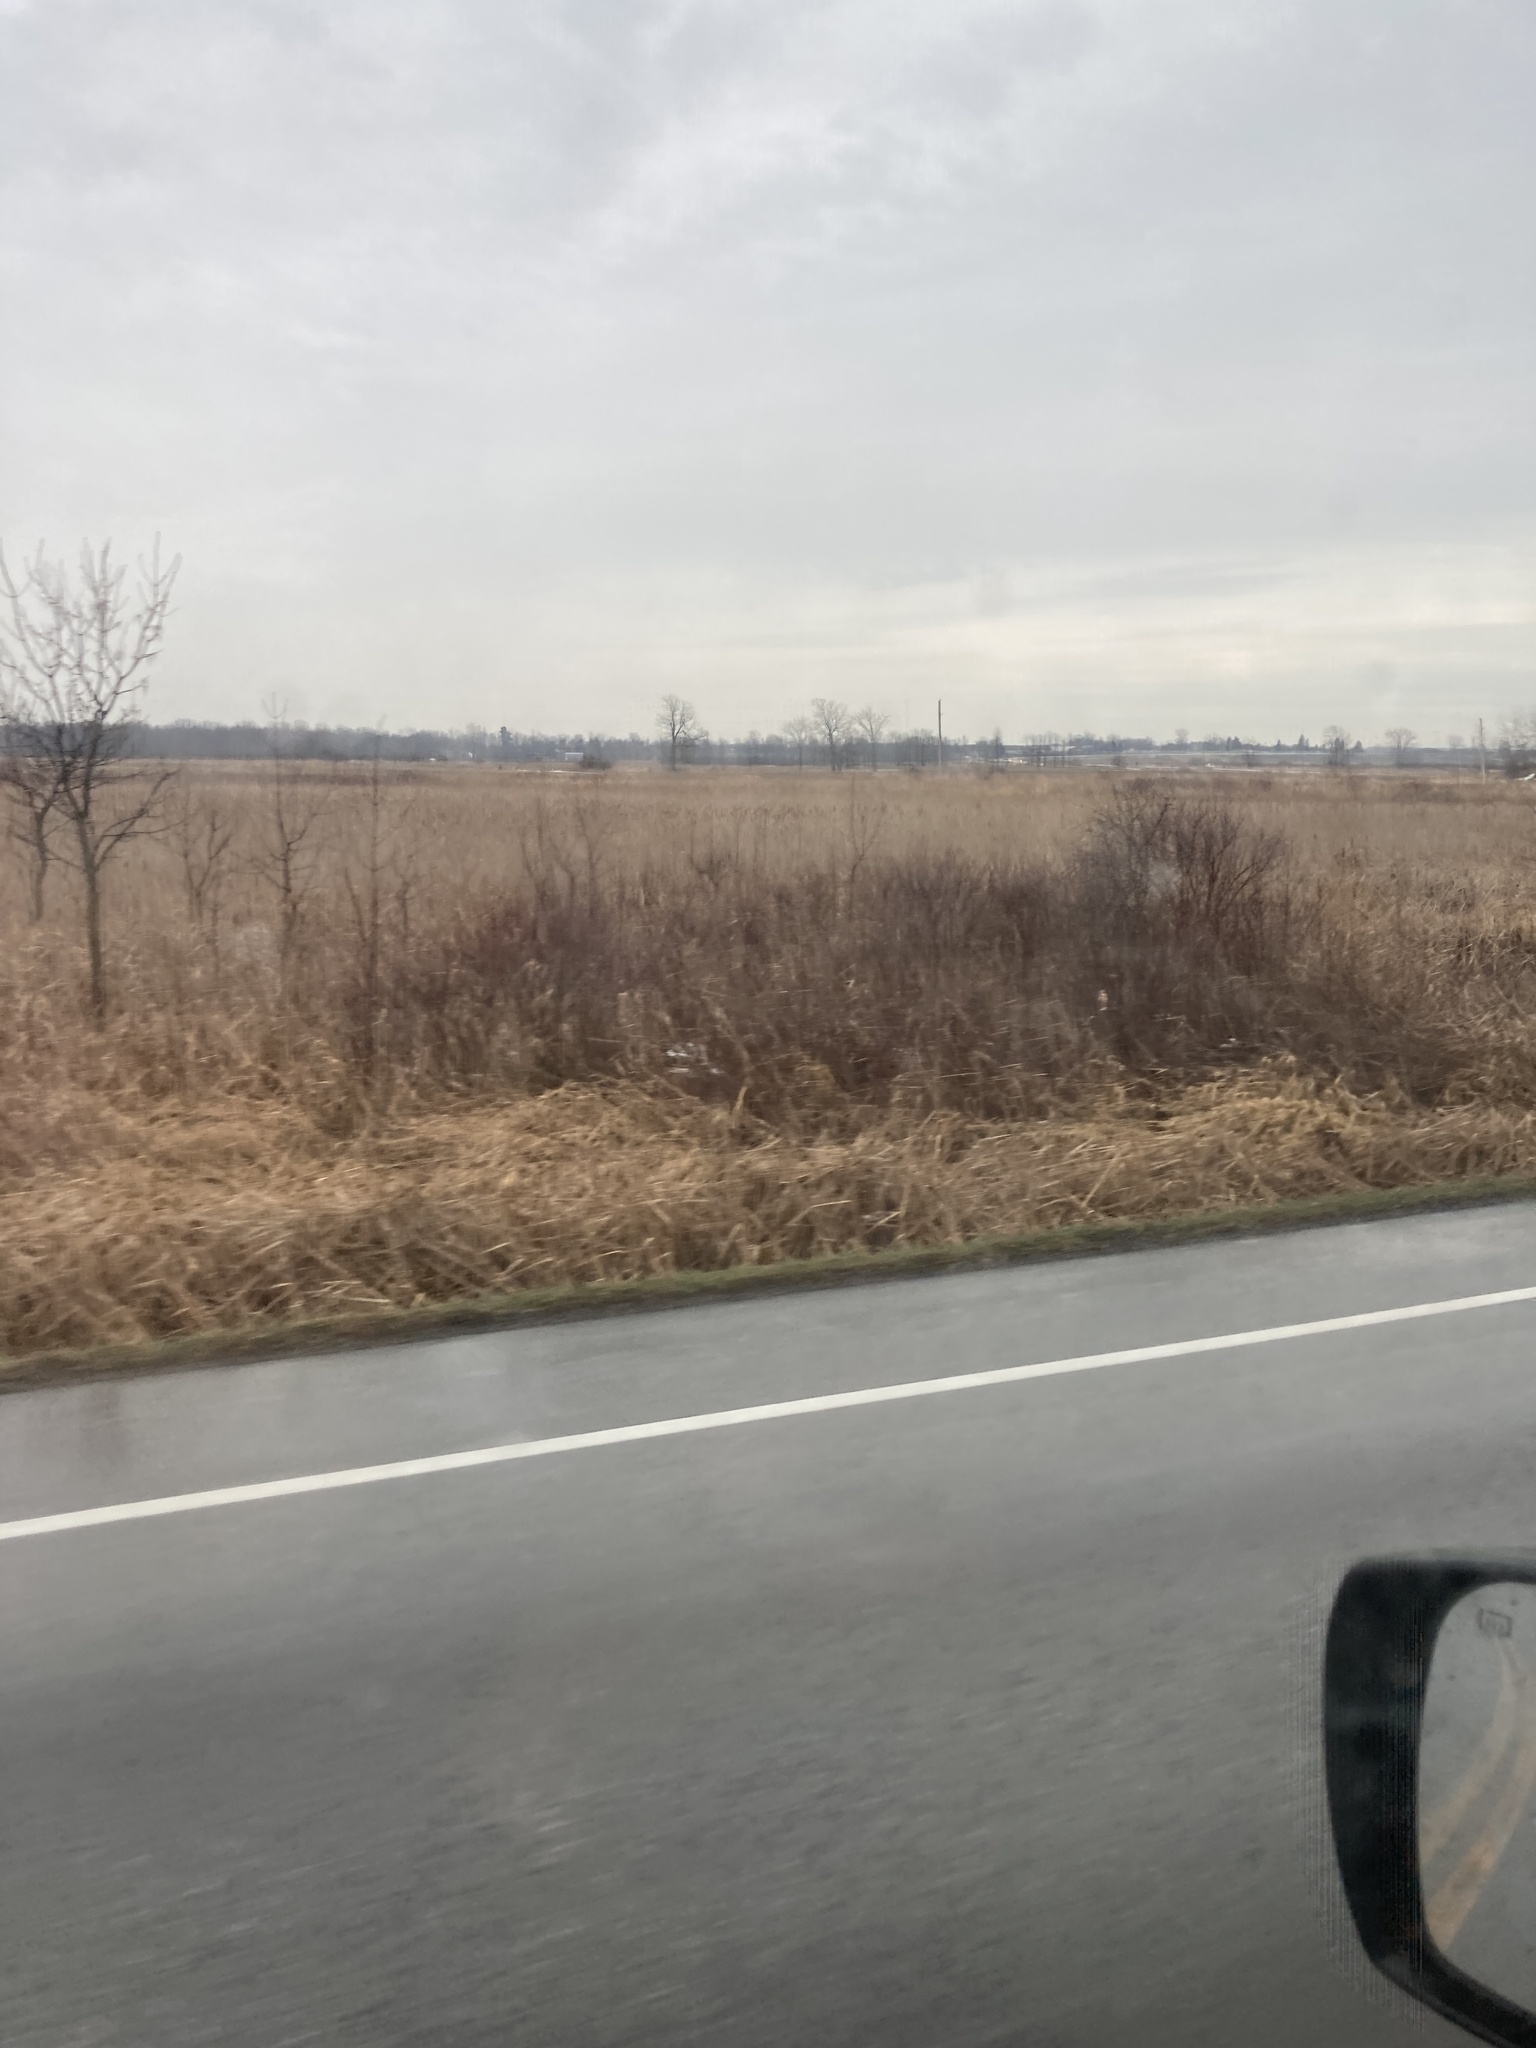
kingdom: Plantae
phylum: Tracheophyta
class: Liliopsida
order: Poales
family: Poaceae
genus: Phalaris
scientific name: Phalaris arundinacea
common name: Reed canary-grass
